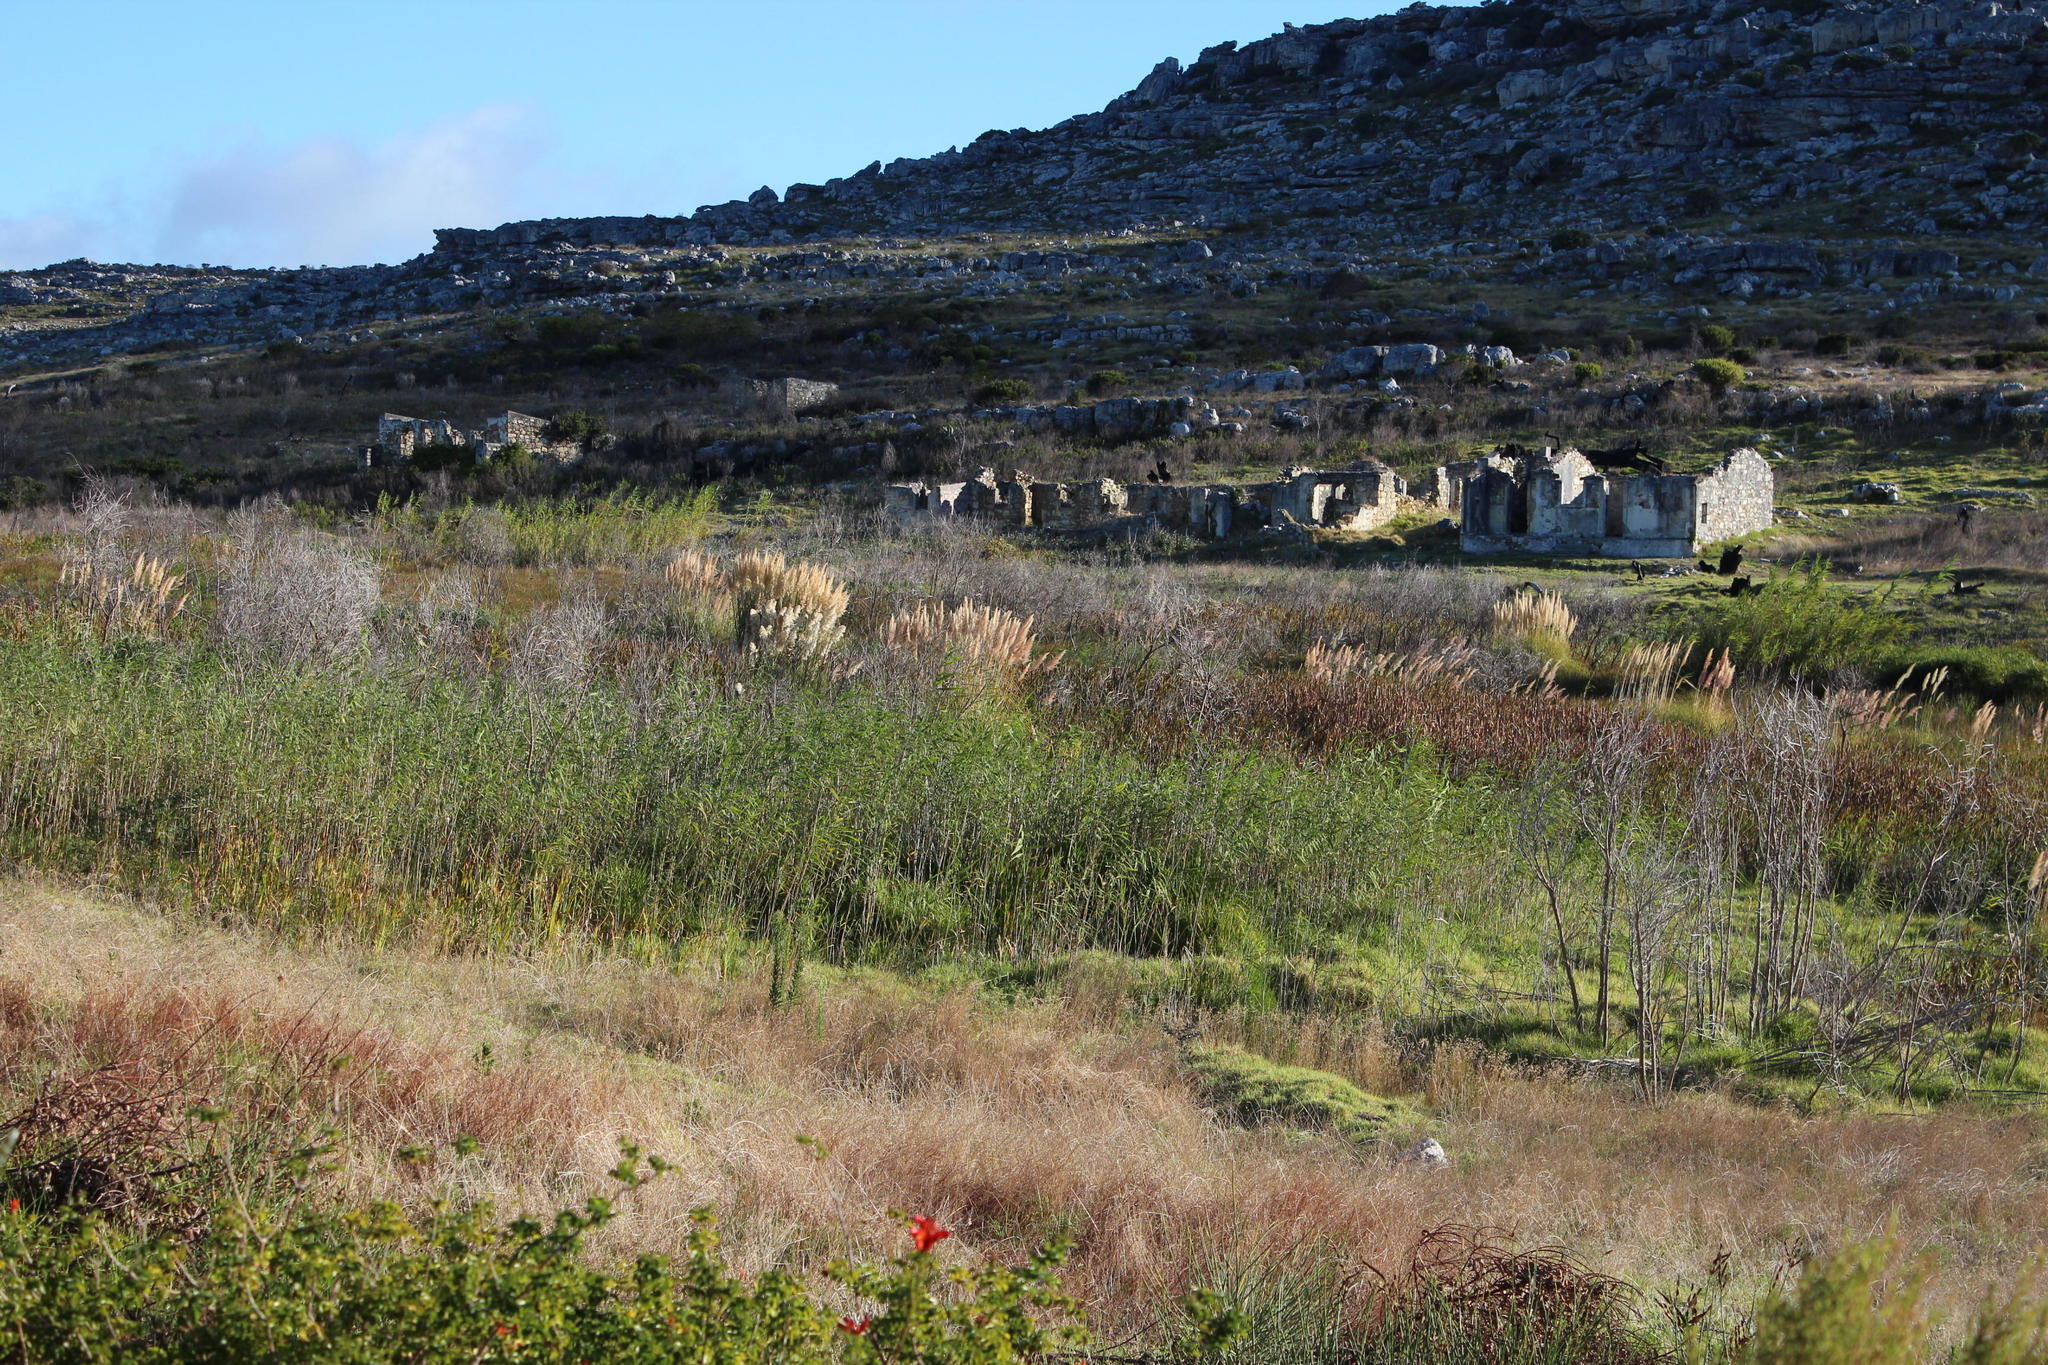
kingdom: Plantae
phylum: Tracheophyta
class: Liliopsida
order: Poales
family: Poaceae
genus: Arundo
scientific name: Arundo donax
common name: Giant reed
